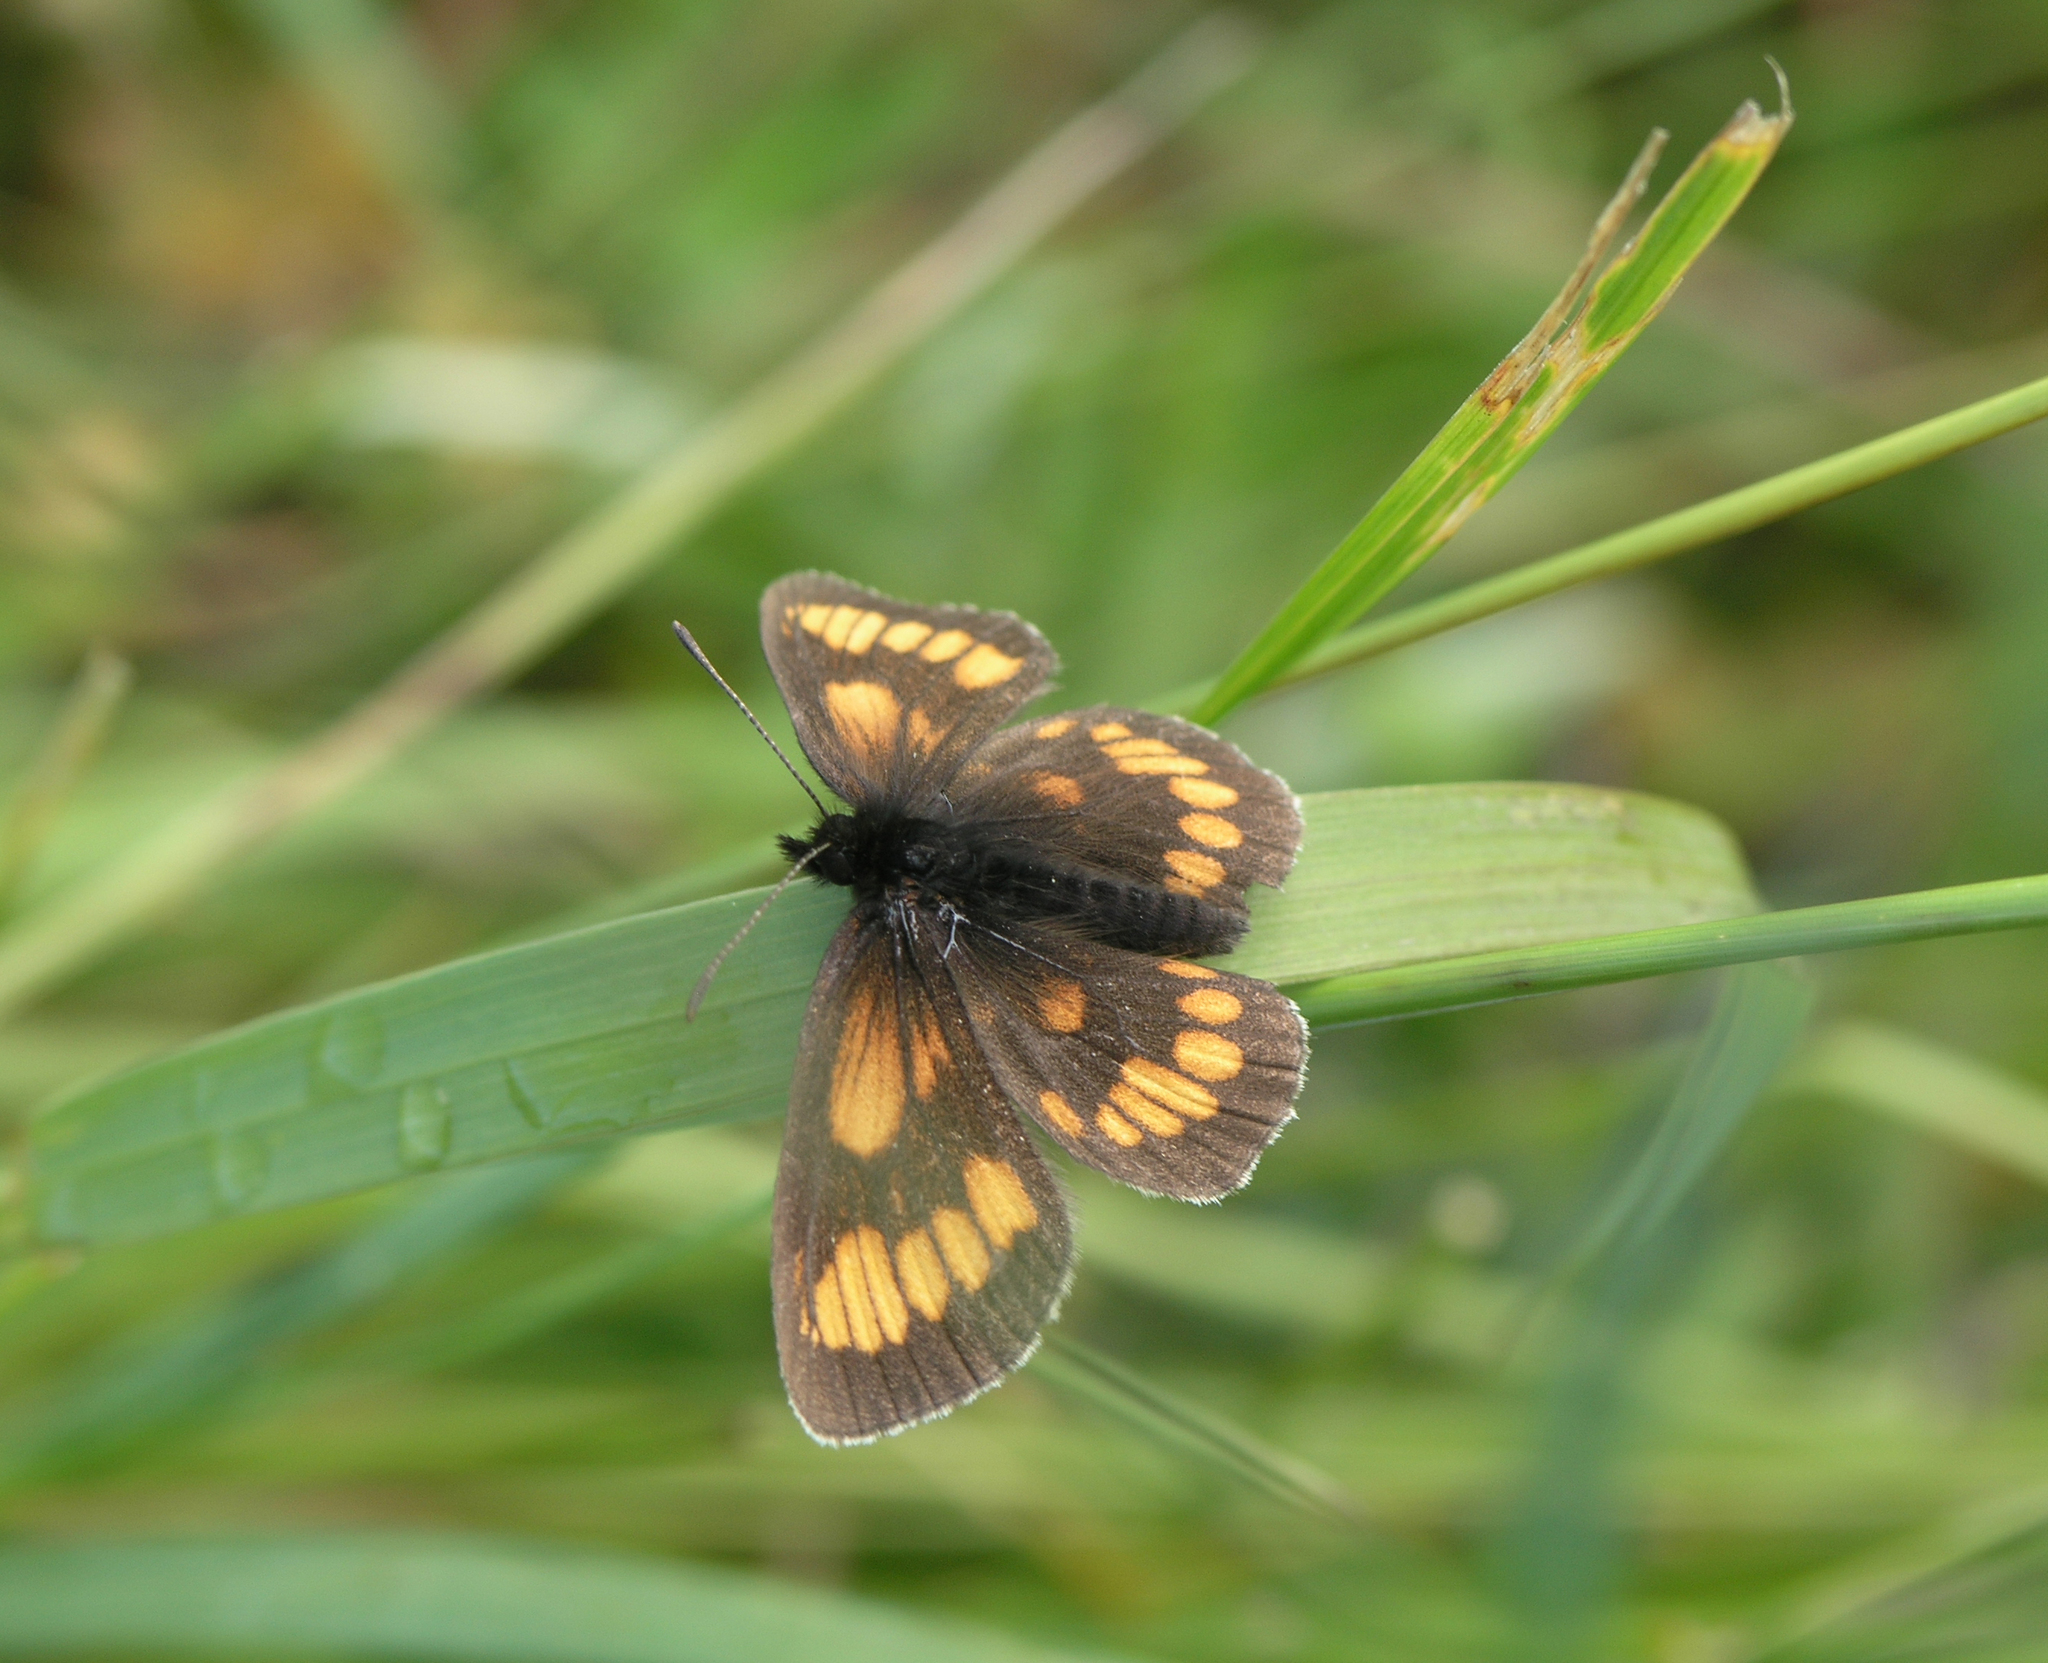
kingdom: Animalia
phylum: Arthropoda
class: Insecta
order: Lepidoptera
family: Nymphalidae
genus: Erebia
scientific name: Erebia maurisius
